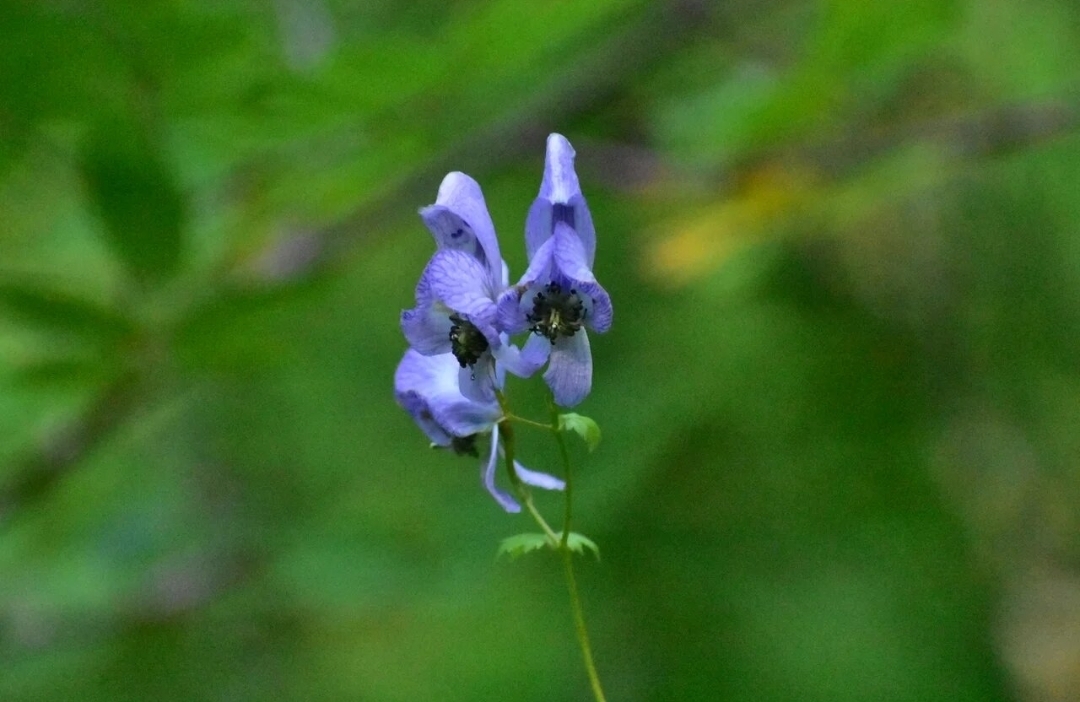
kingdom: Plantae
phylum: Tracheophyta
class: Magnoliopsida
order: Ranunculales
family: Ranunculaceae
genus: Aconitum
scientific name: Aconitum fischeri
